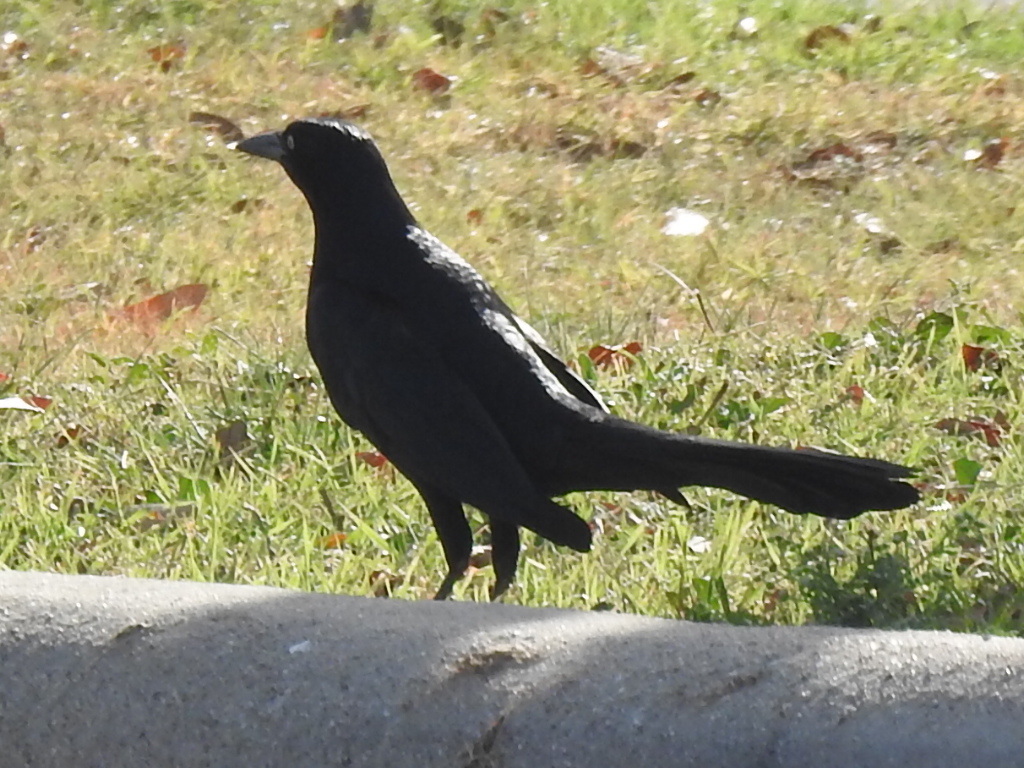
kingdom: Animalia
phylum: Chordata
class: Aves
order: Passeriformes
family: Icteridae
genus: Quiscalus
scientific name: Quiscalus mexicanus
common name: Great-tailed grackle
